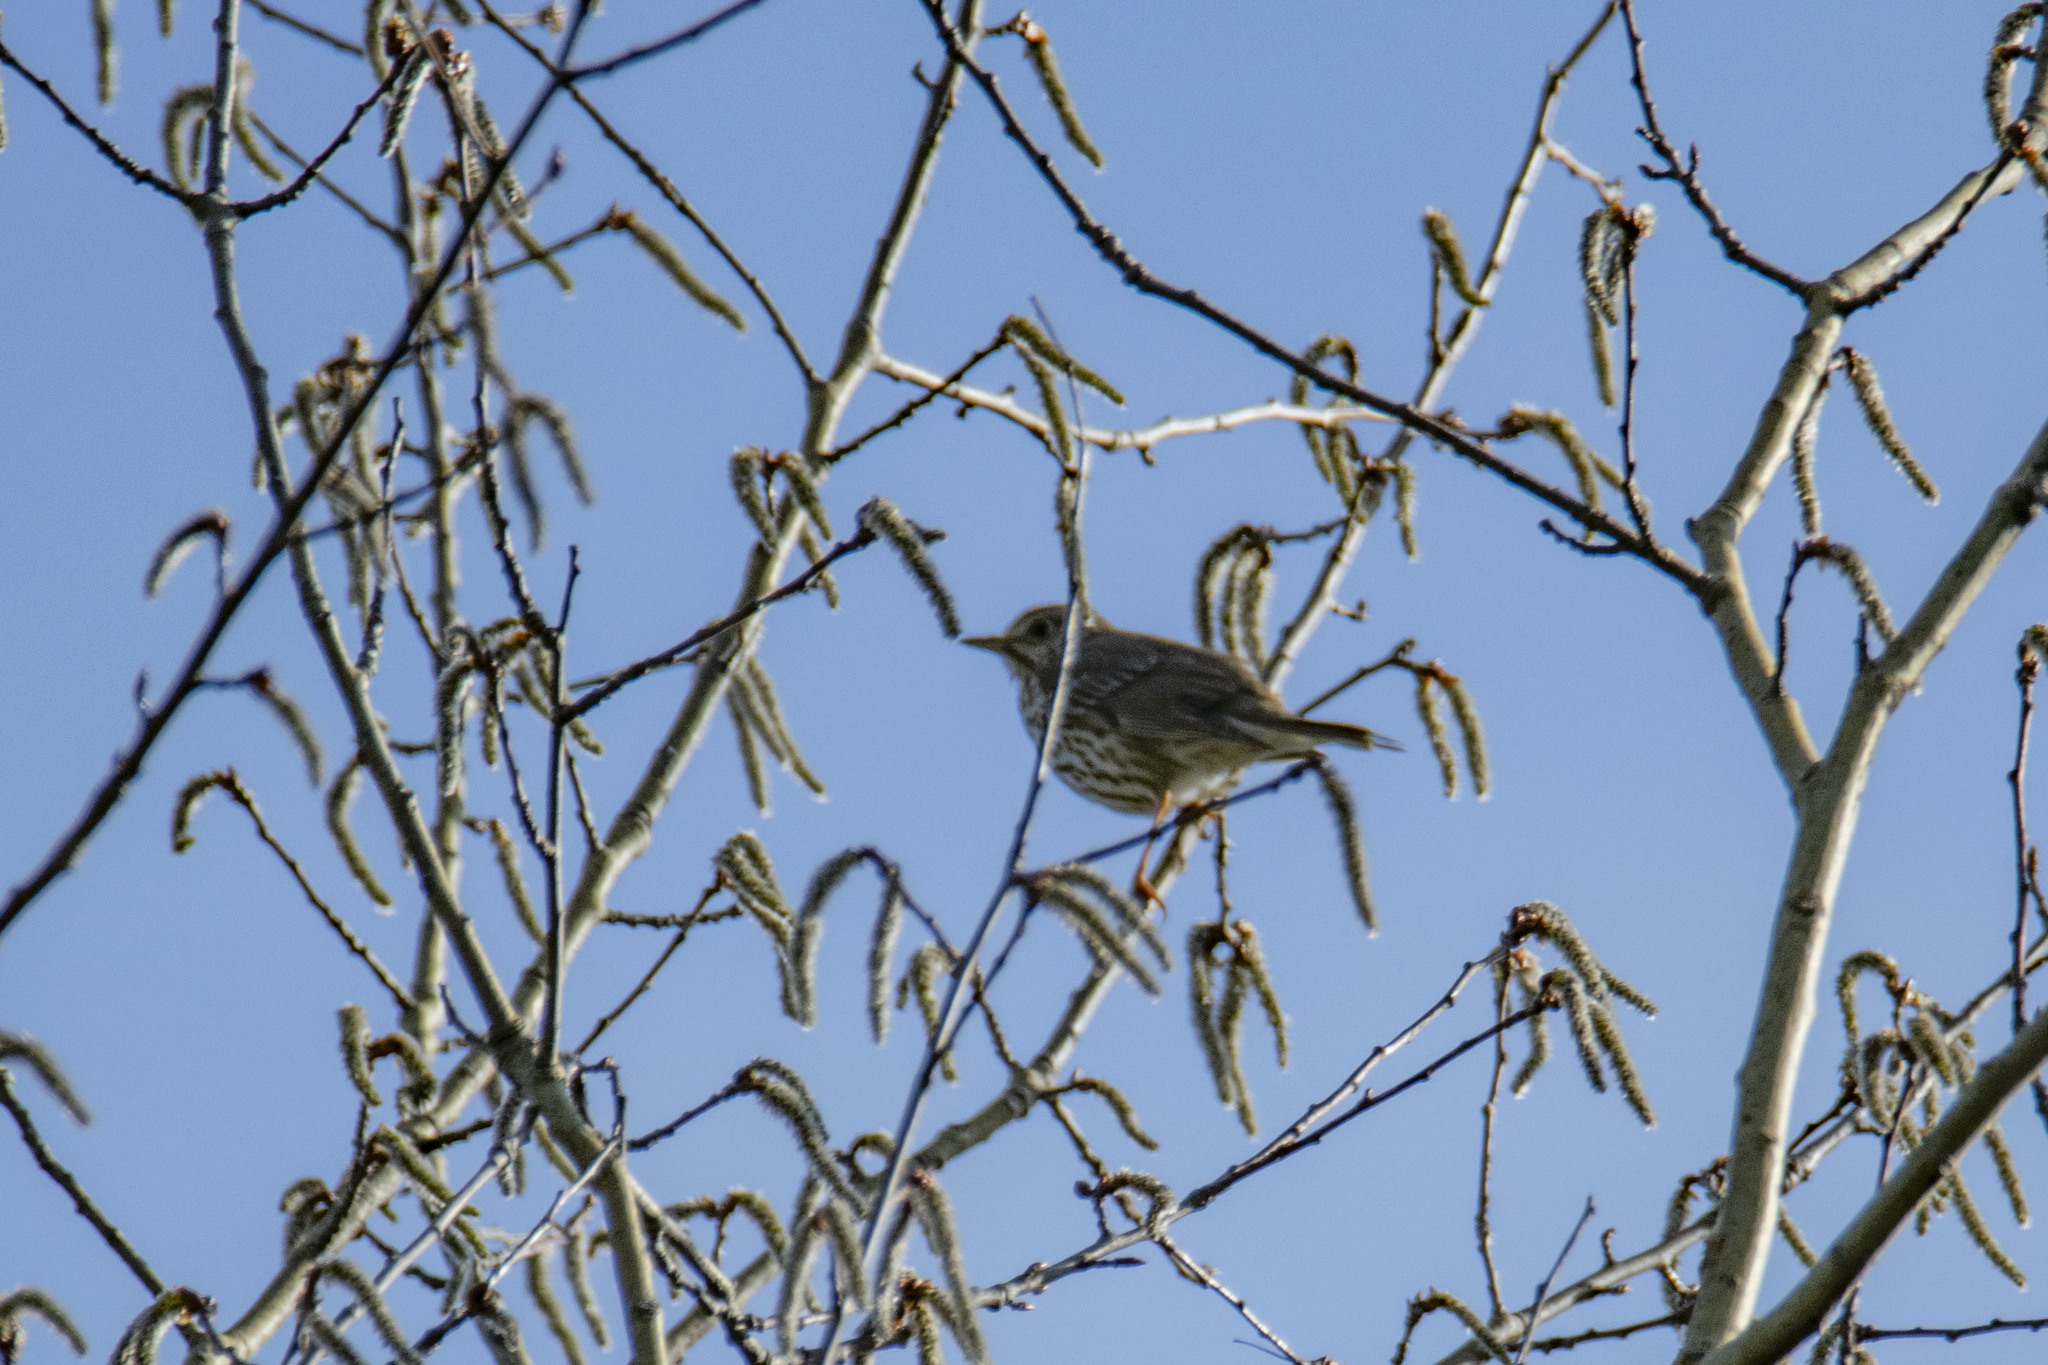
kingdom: Animalia
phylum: Chordata
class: Aves
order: Passeriformes
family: Turdidae
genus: Turdus
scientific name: Turdus philomelos
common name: Song thrush
